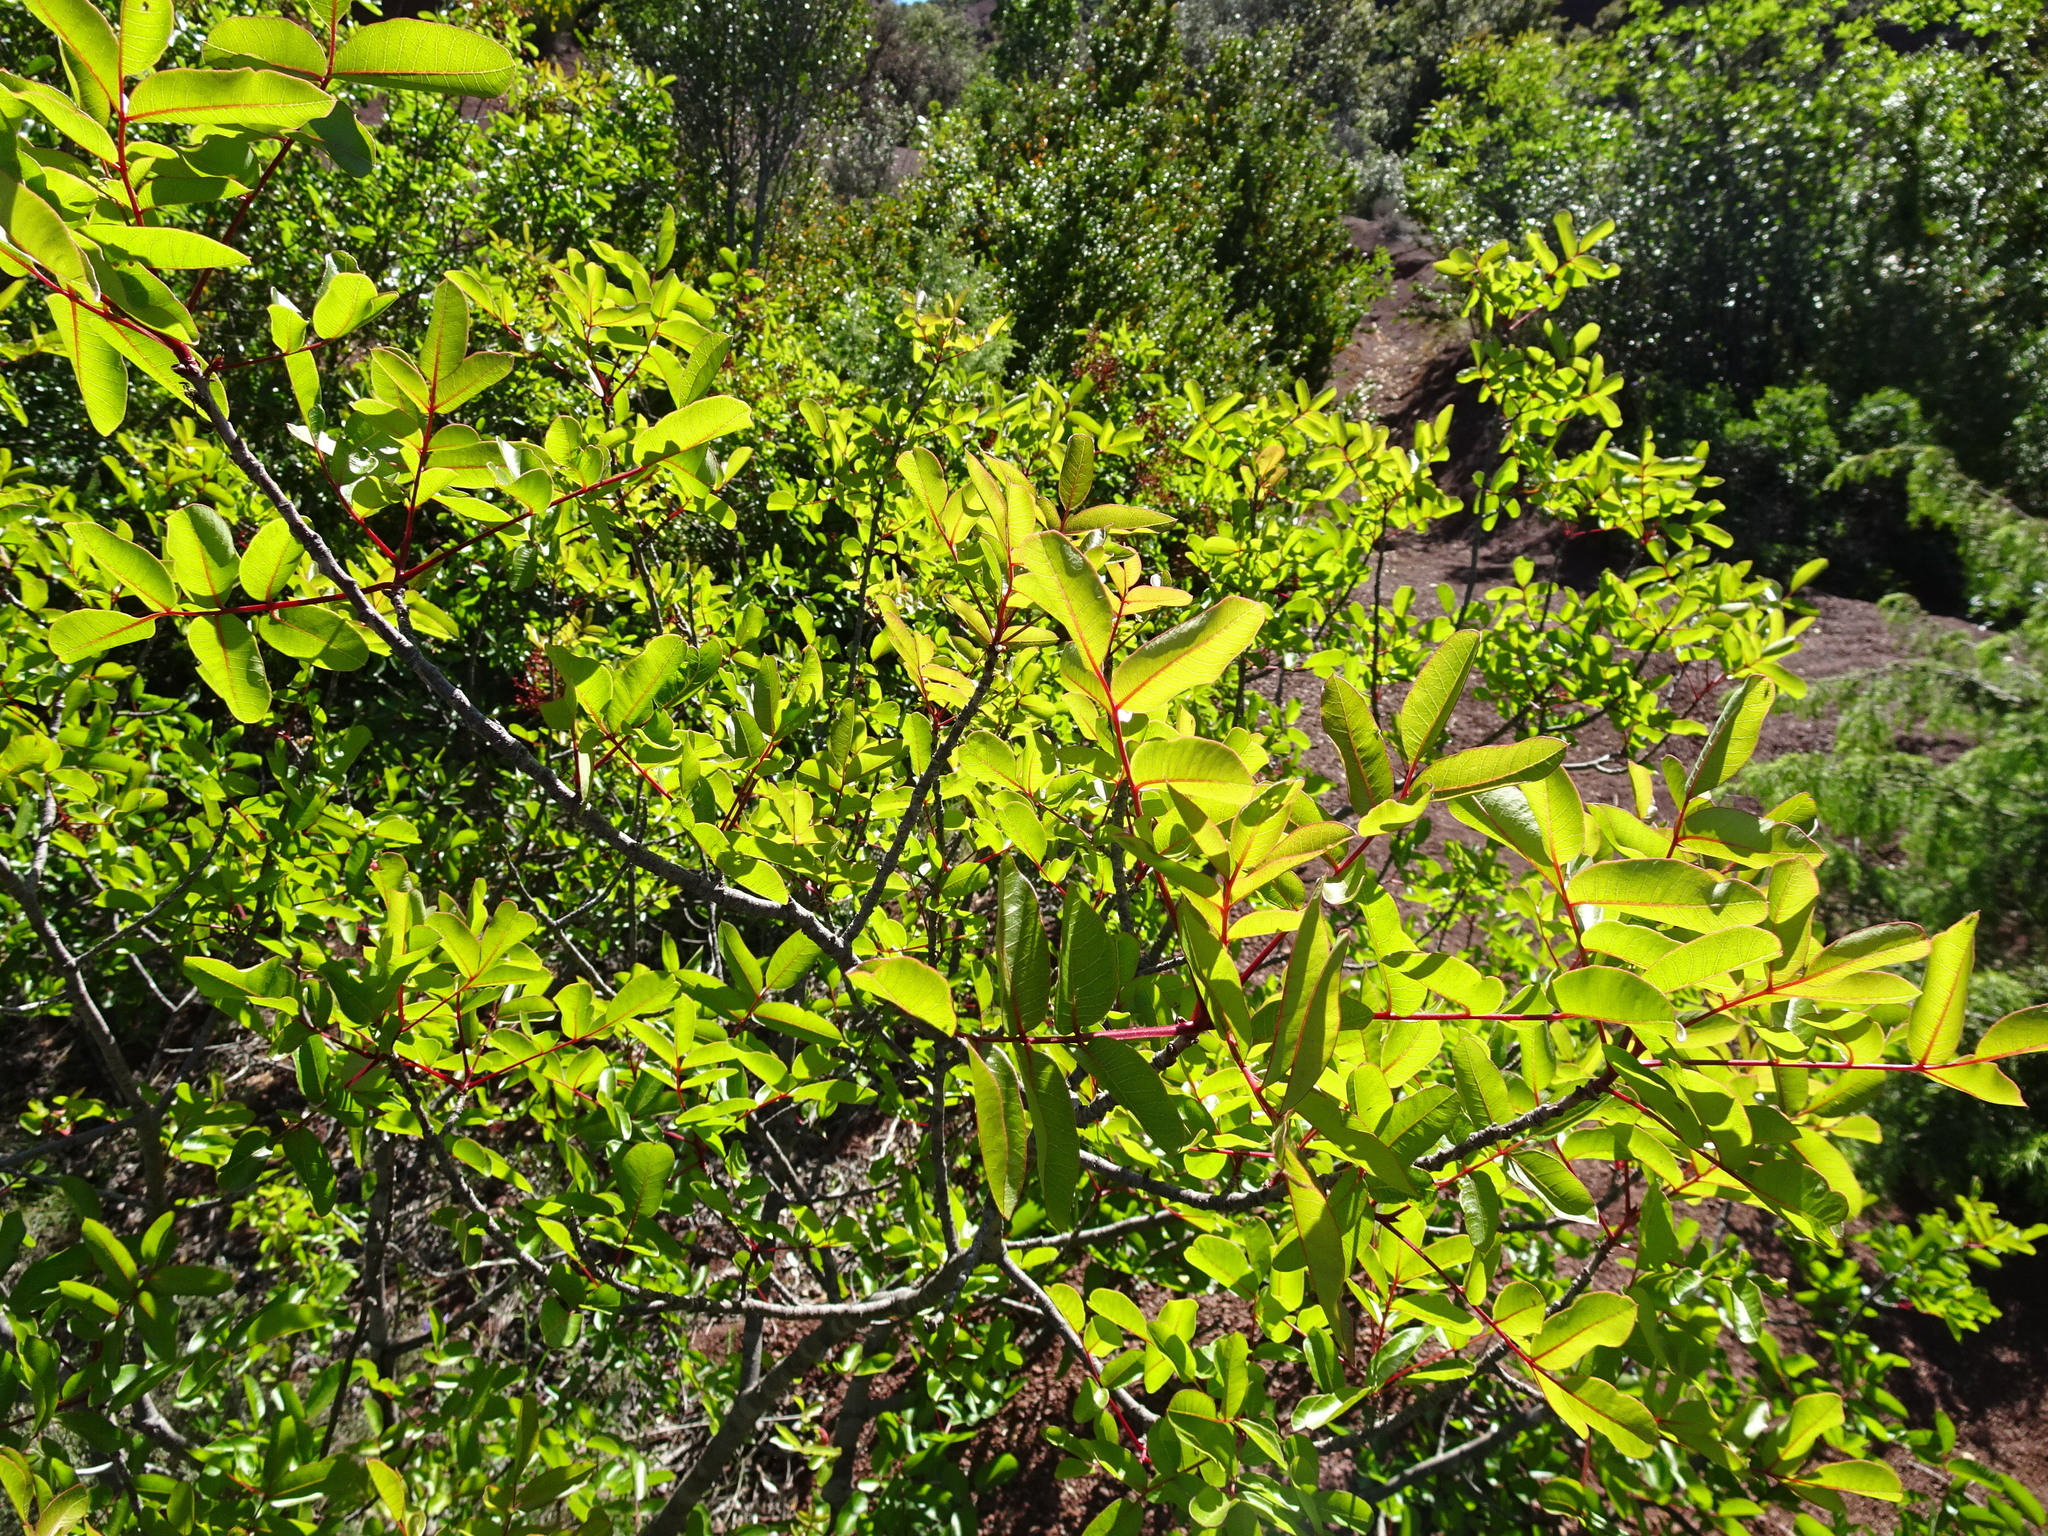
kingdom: Plantae
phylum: Tracheophyta
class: Magnoliopsida
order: Sapindales
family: Anacardiaceae
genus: Pistacia
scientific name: Pistacia terebinthus
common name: Terebinth
